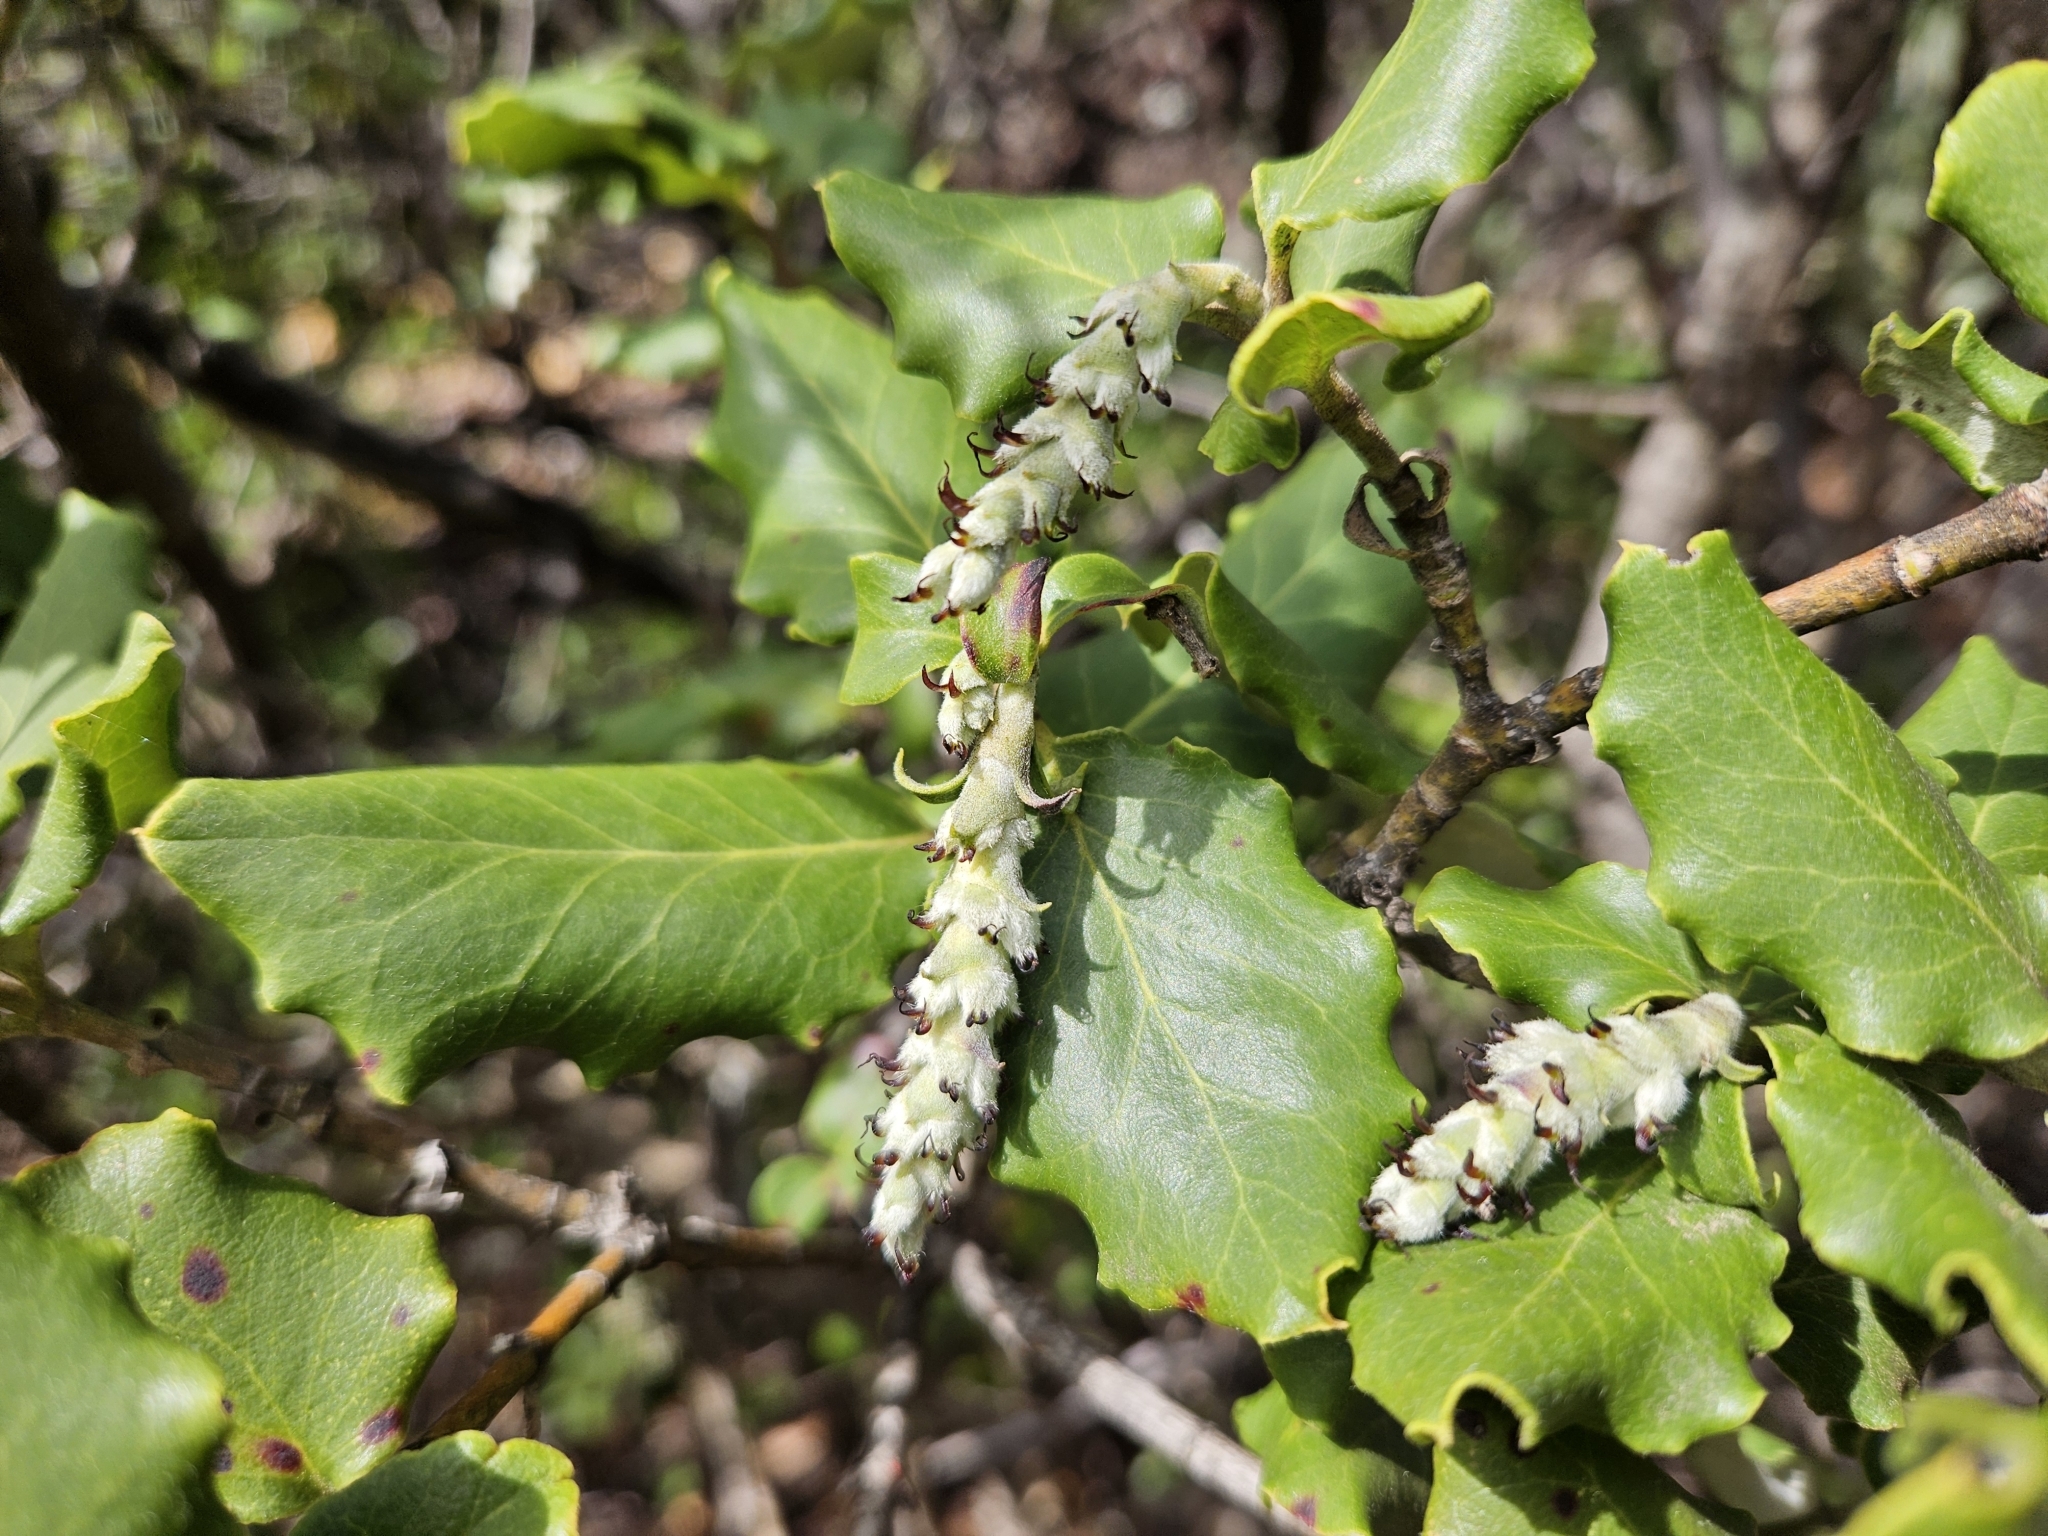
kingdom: Plantae
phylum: Tracheophyta
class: Magnoliopsida
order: Garryales
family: Garryaceae
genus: Garrya
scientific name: Garrya elliptica
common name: Silk-tassel
